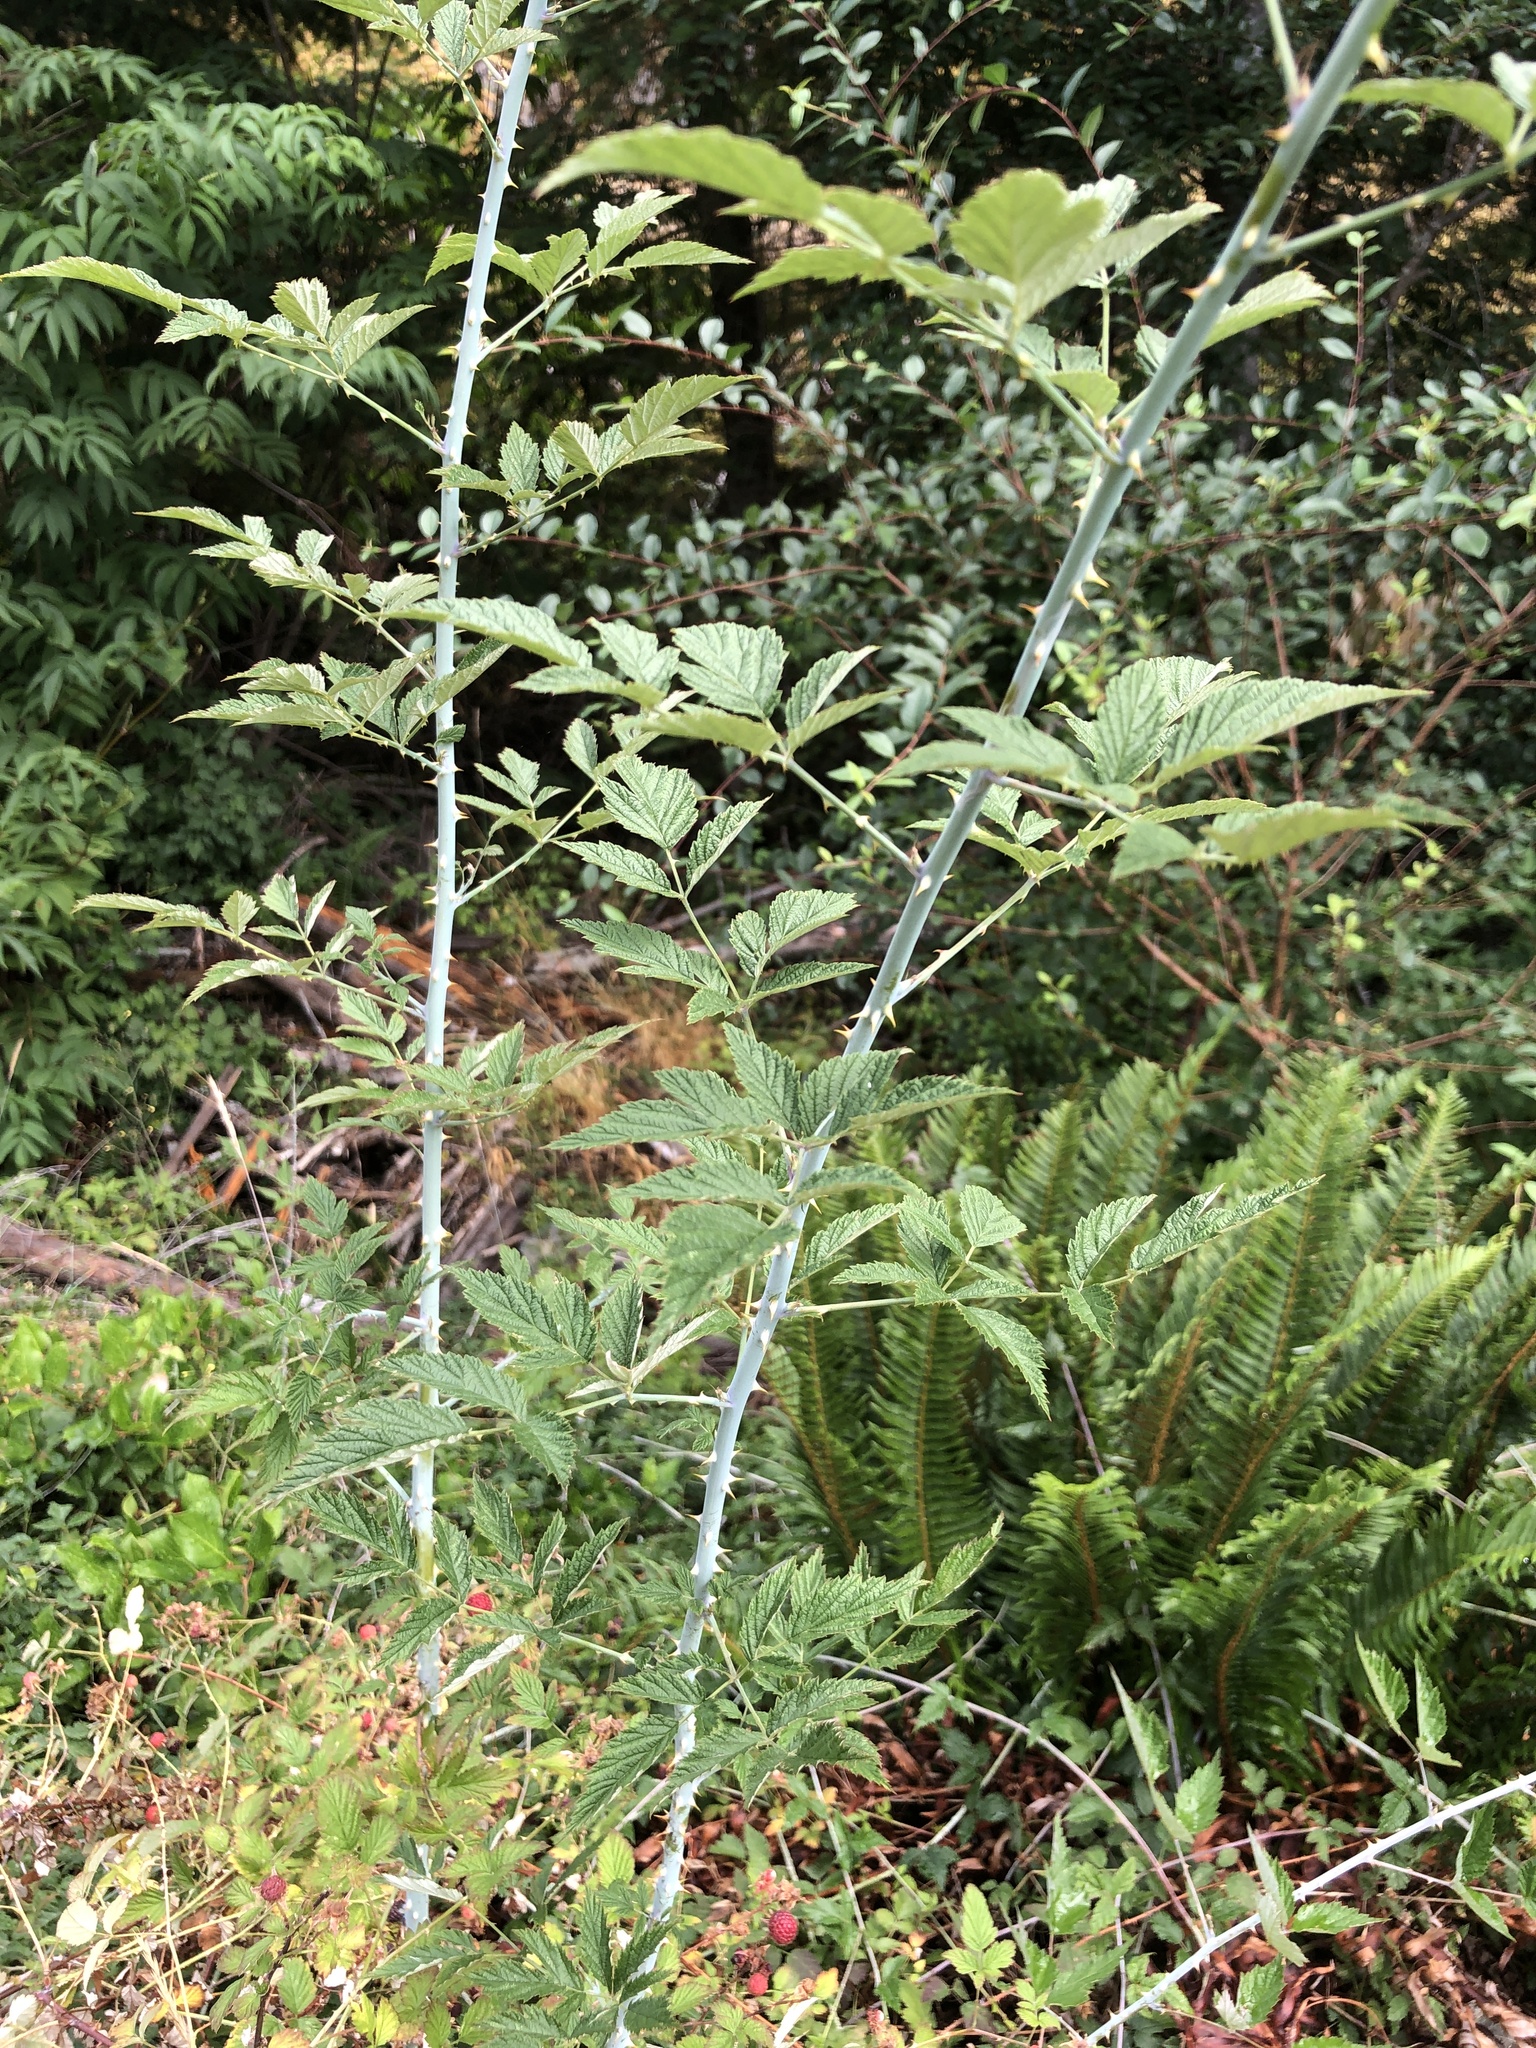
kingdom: Plantae
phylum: Tracheophyta
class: Magnoliopsida
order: Rosales
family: Rosaceae
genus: Rubus
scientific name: Rubus leucodermis
